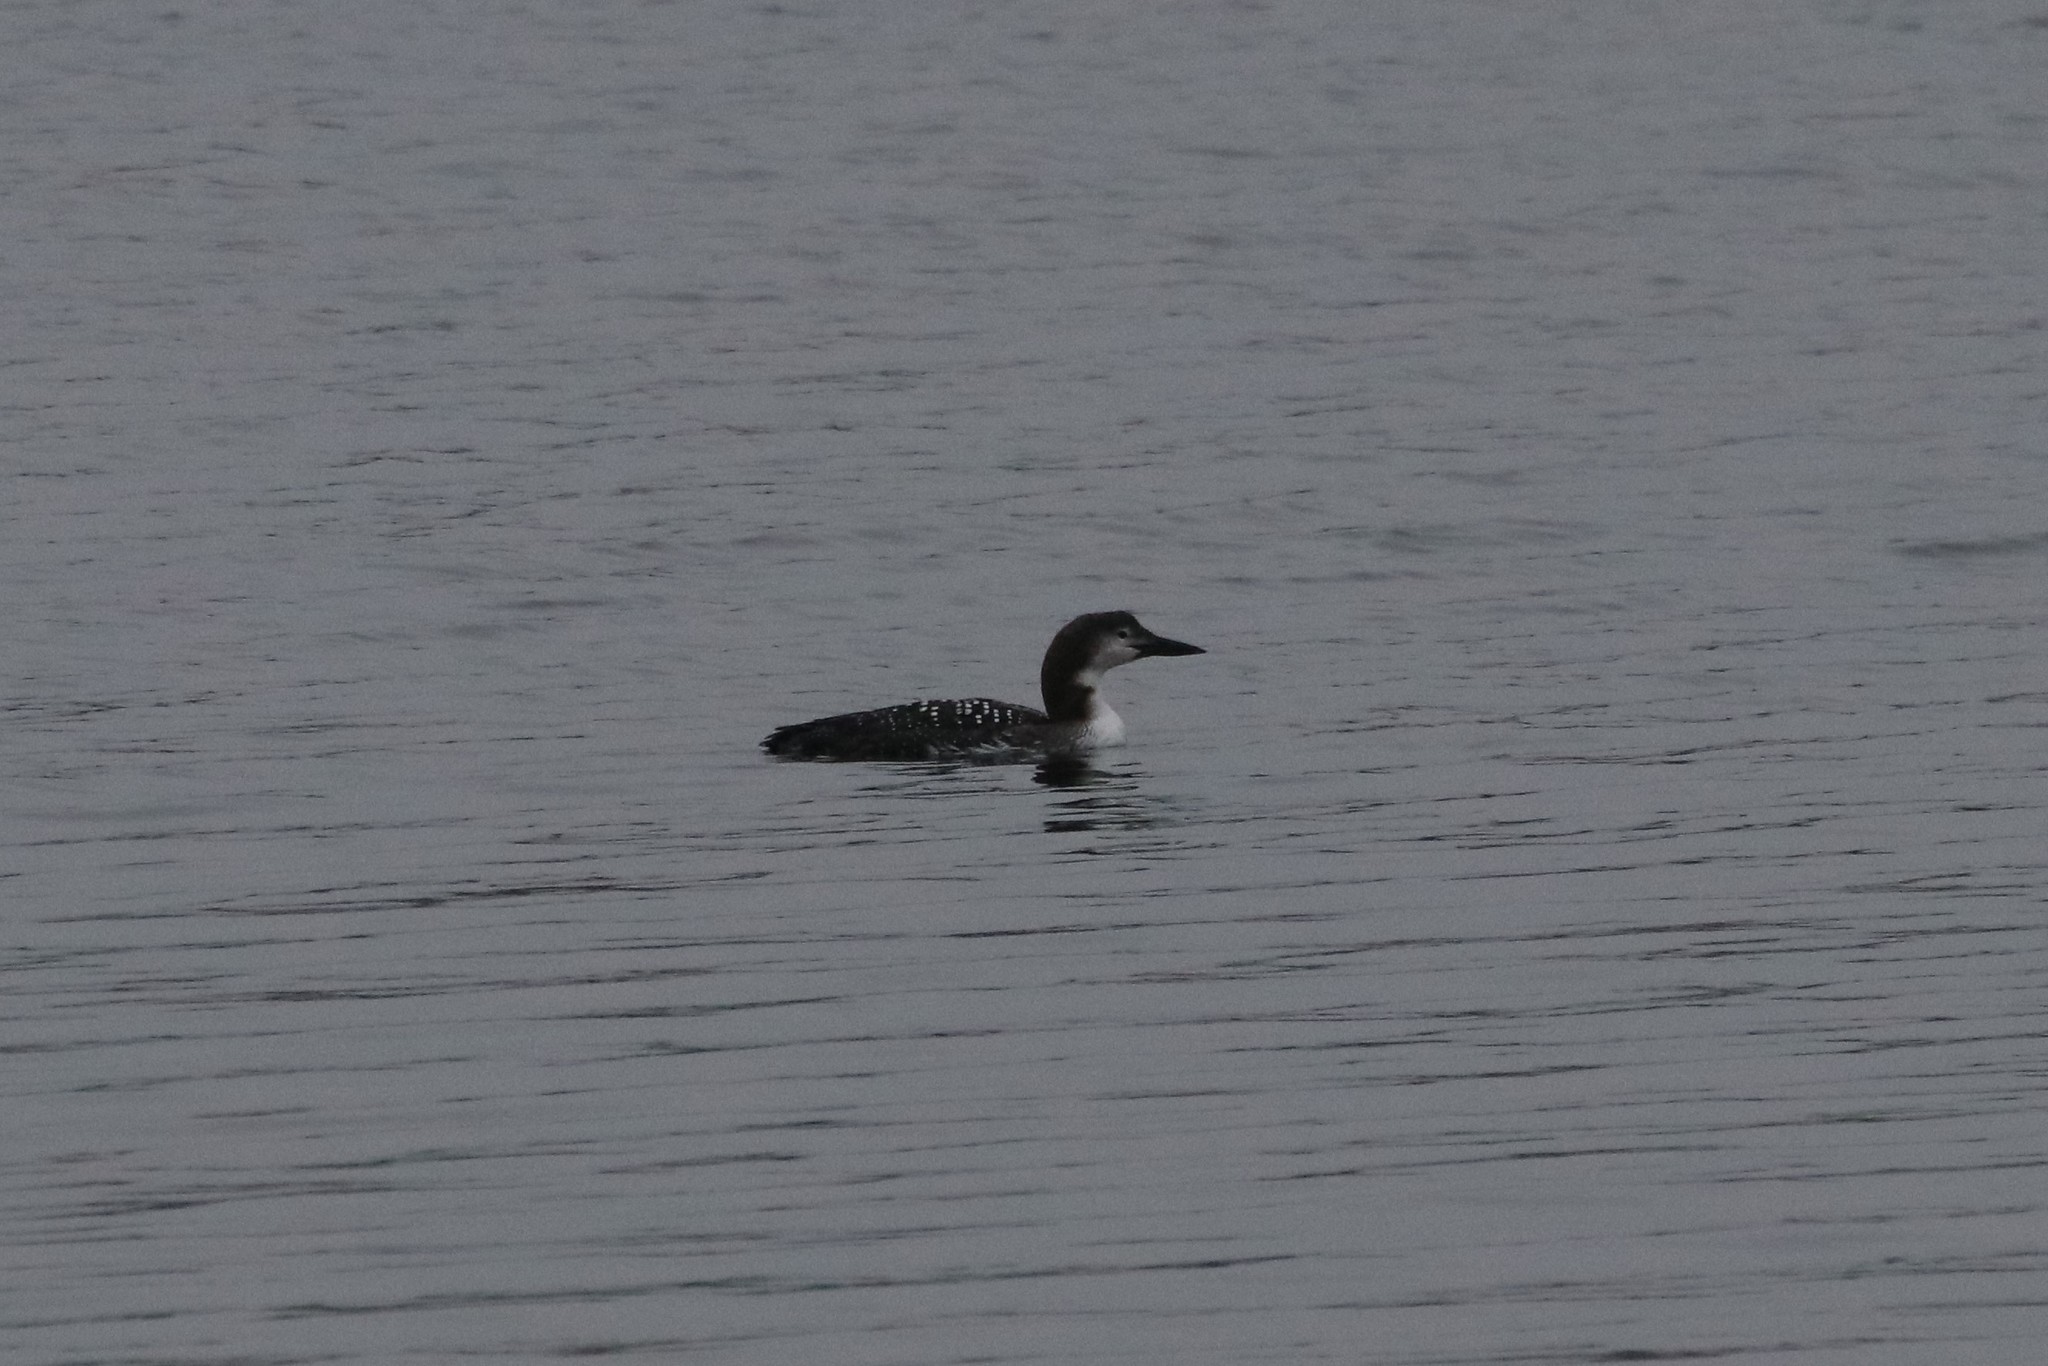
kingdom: Animalia
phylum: Chordata
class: Aves
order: Gaviiformes
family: Gaviidae
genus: Gavia
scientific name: Gavia immer
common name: Common loon
